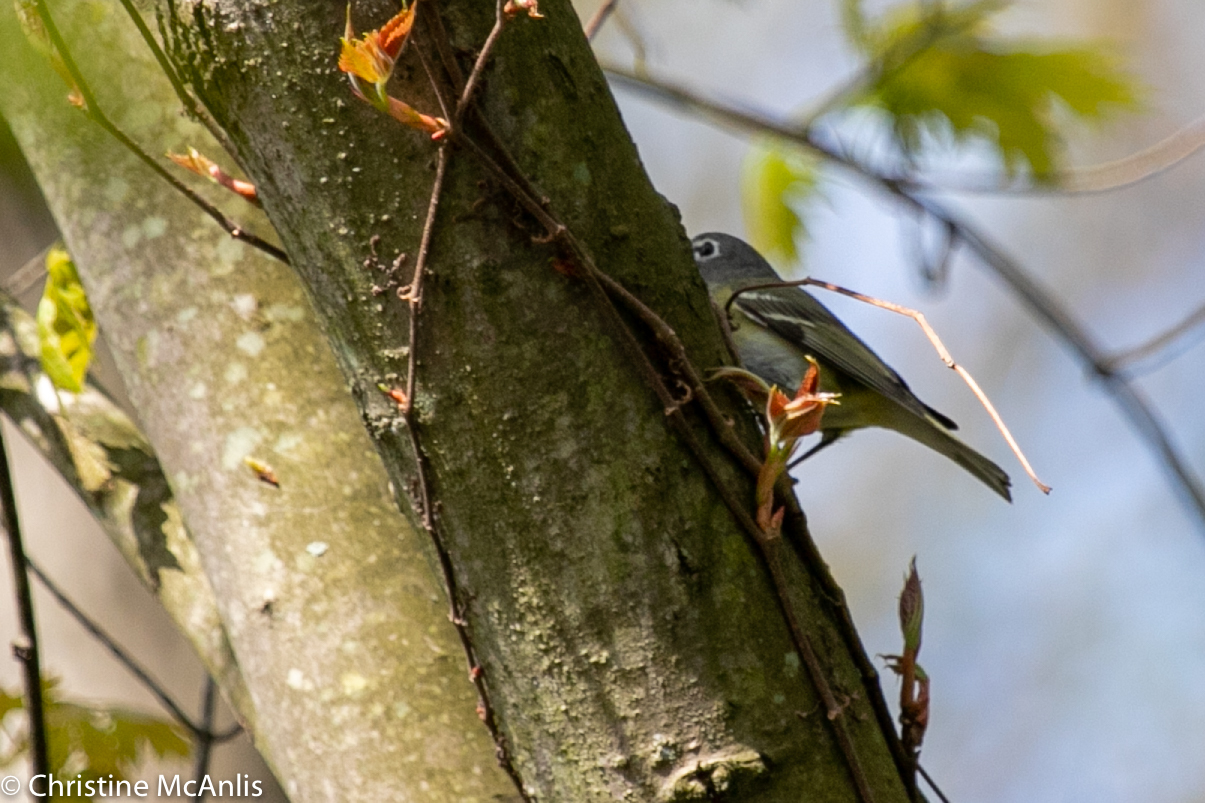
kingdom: Animalia
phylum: Chordata
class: Aves
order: Passeriformes
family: Vireonidae
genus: Vireo
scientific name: Vireo solitarius
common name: Blue-headed vireo
